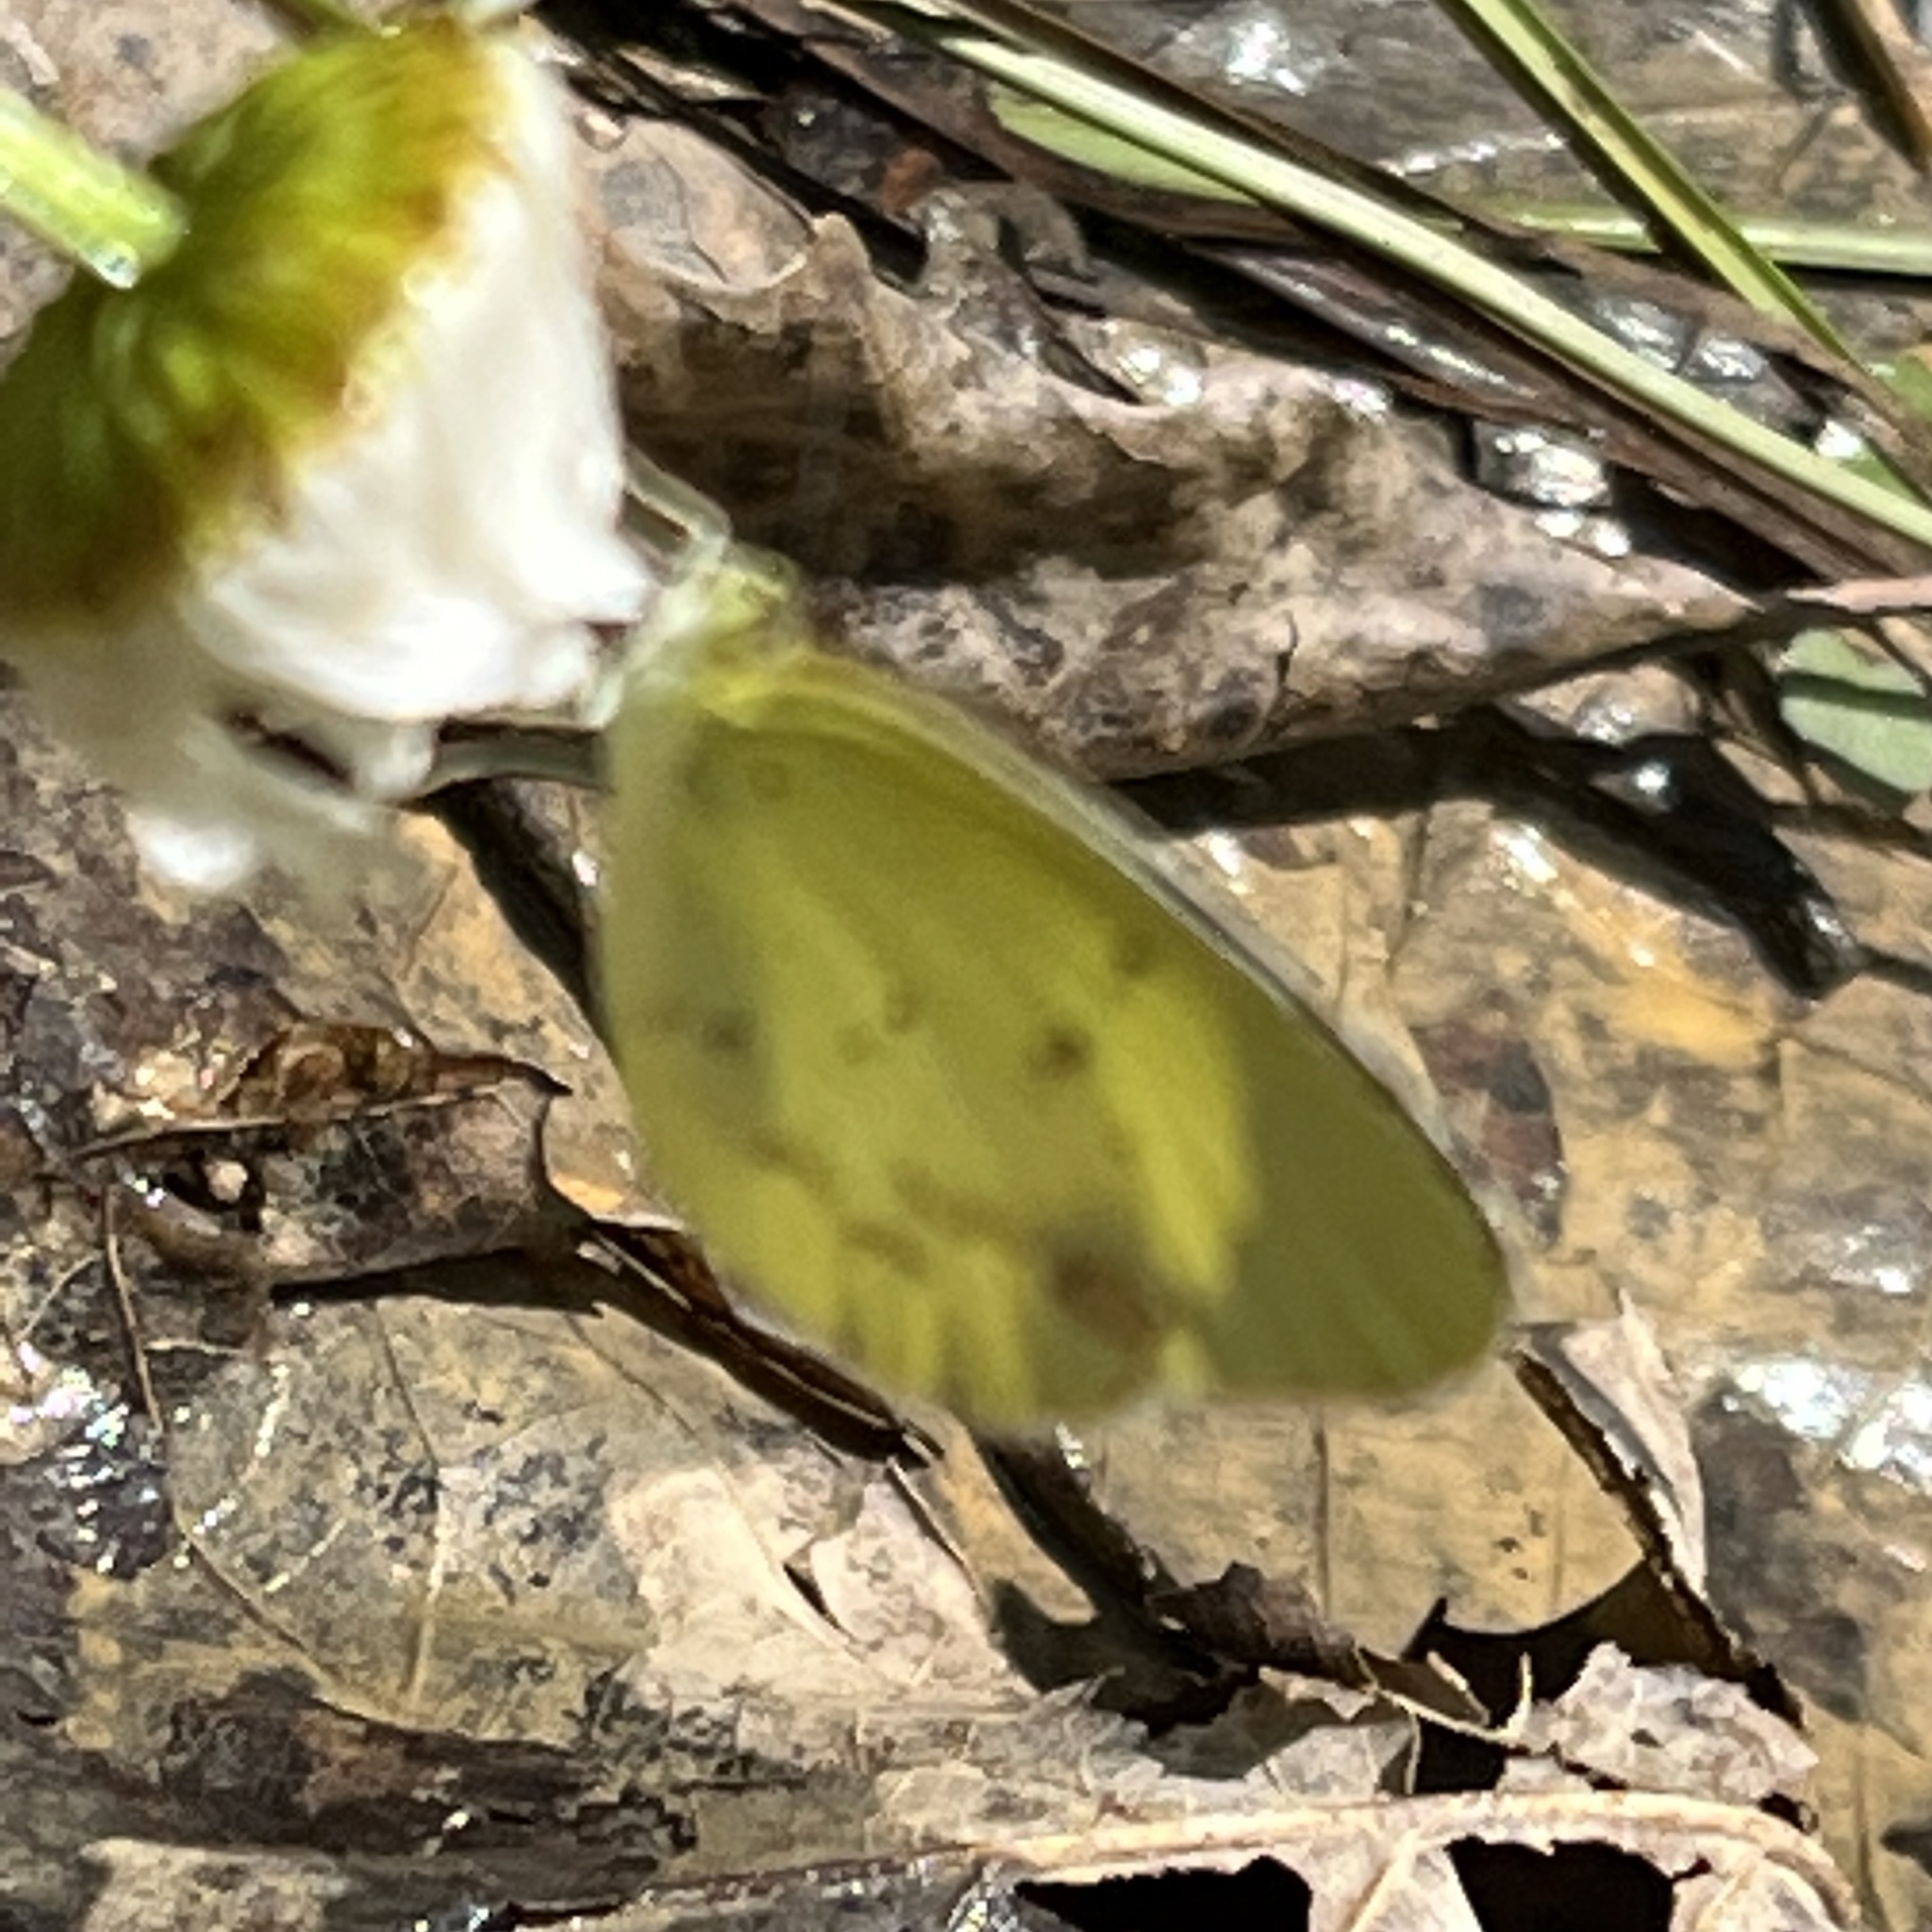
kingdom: Animalia
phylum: Arthropoda
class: Insecta
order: Lepidoptera
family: Pieridae
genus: Pyrisitia
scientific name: Pyrisitia lisa
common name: Little yellow
